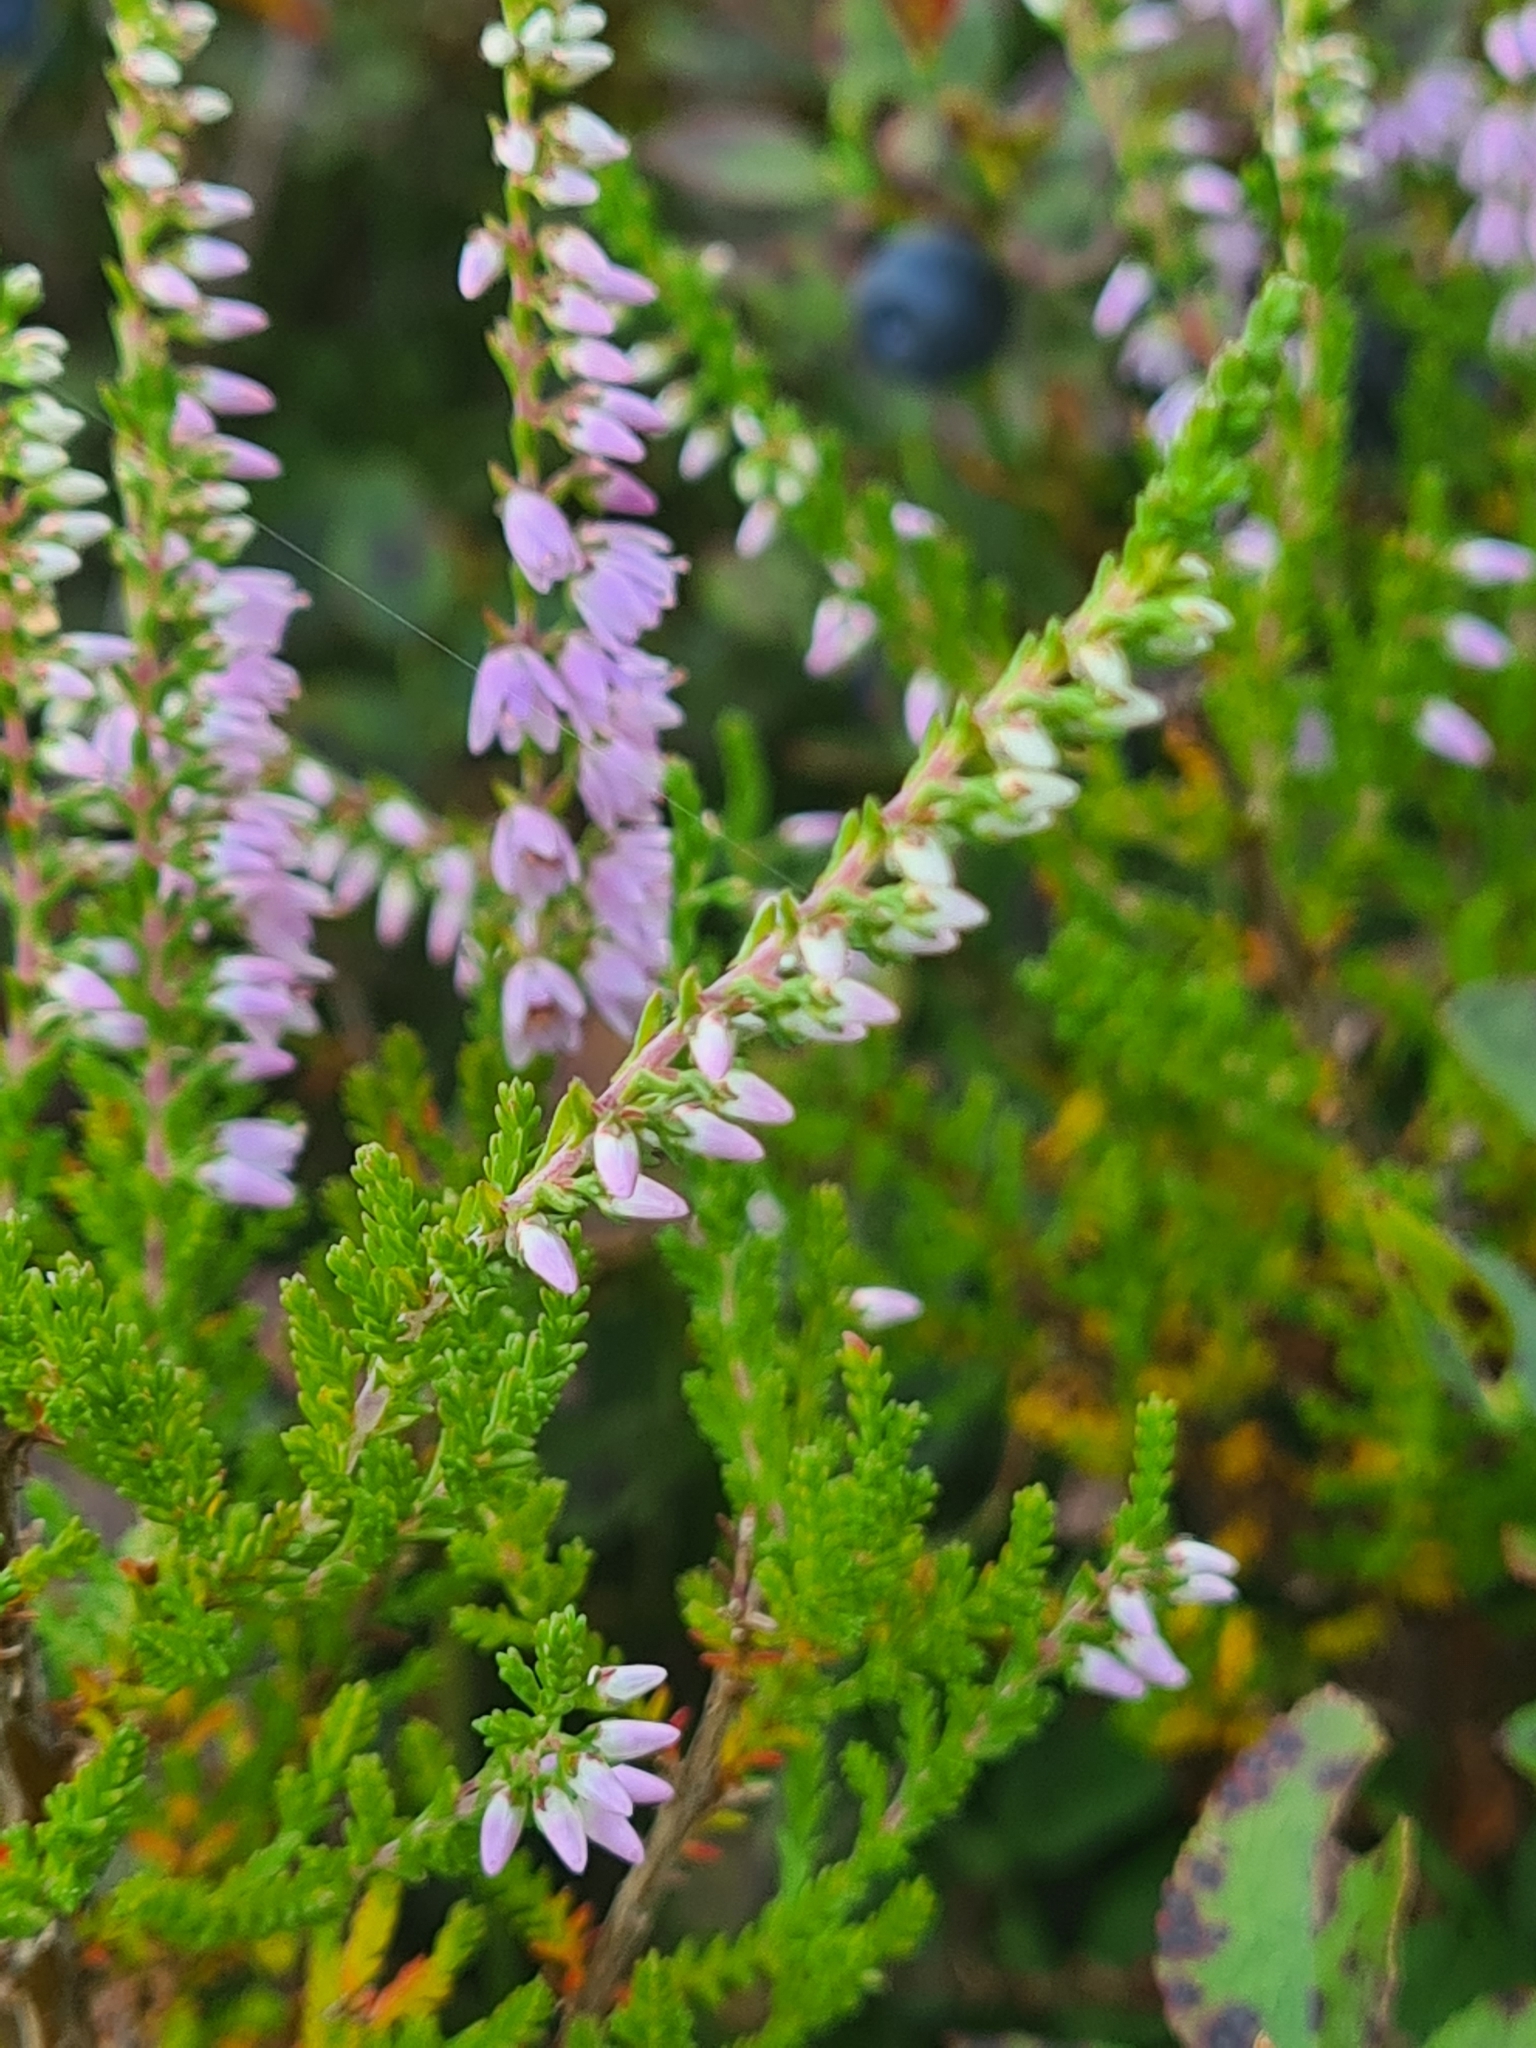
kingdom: Plantae
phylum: Tracheophyta
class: Magnoliopsida
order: Ericales
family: Ericaceae
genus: Calluna
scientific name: Calluna vulgaris
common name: Heather
